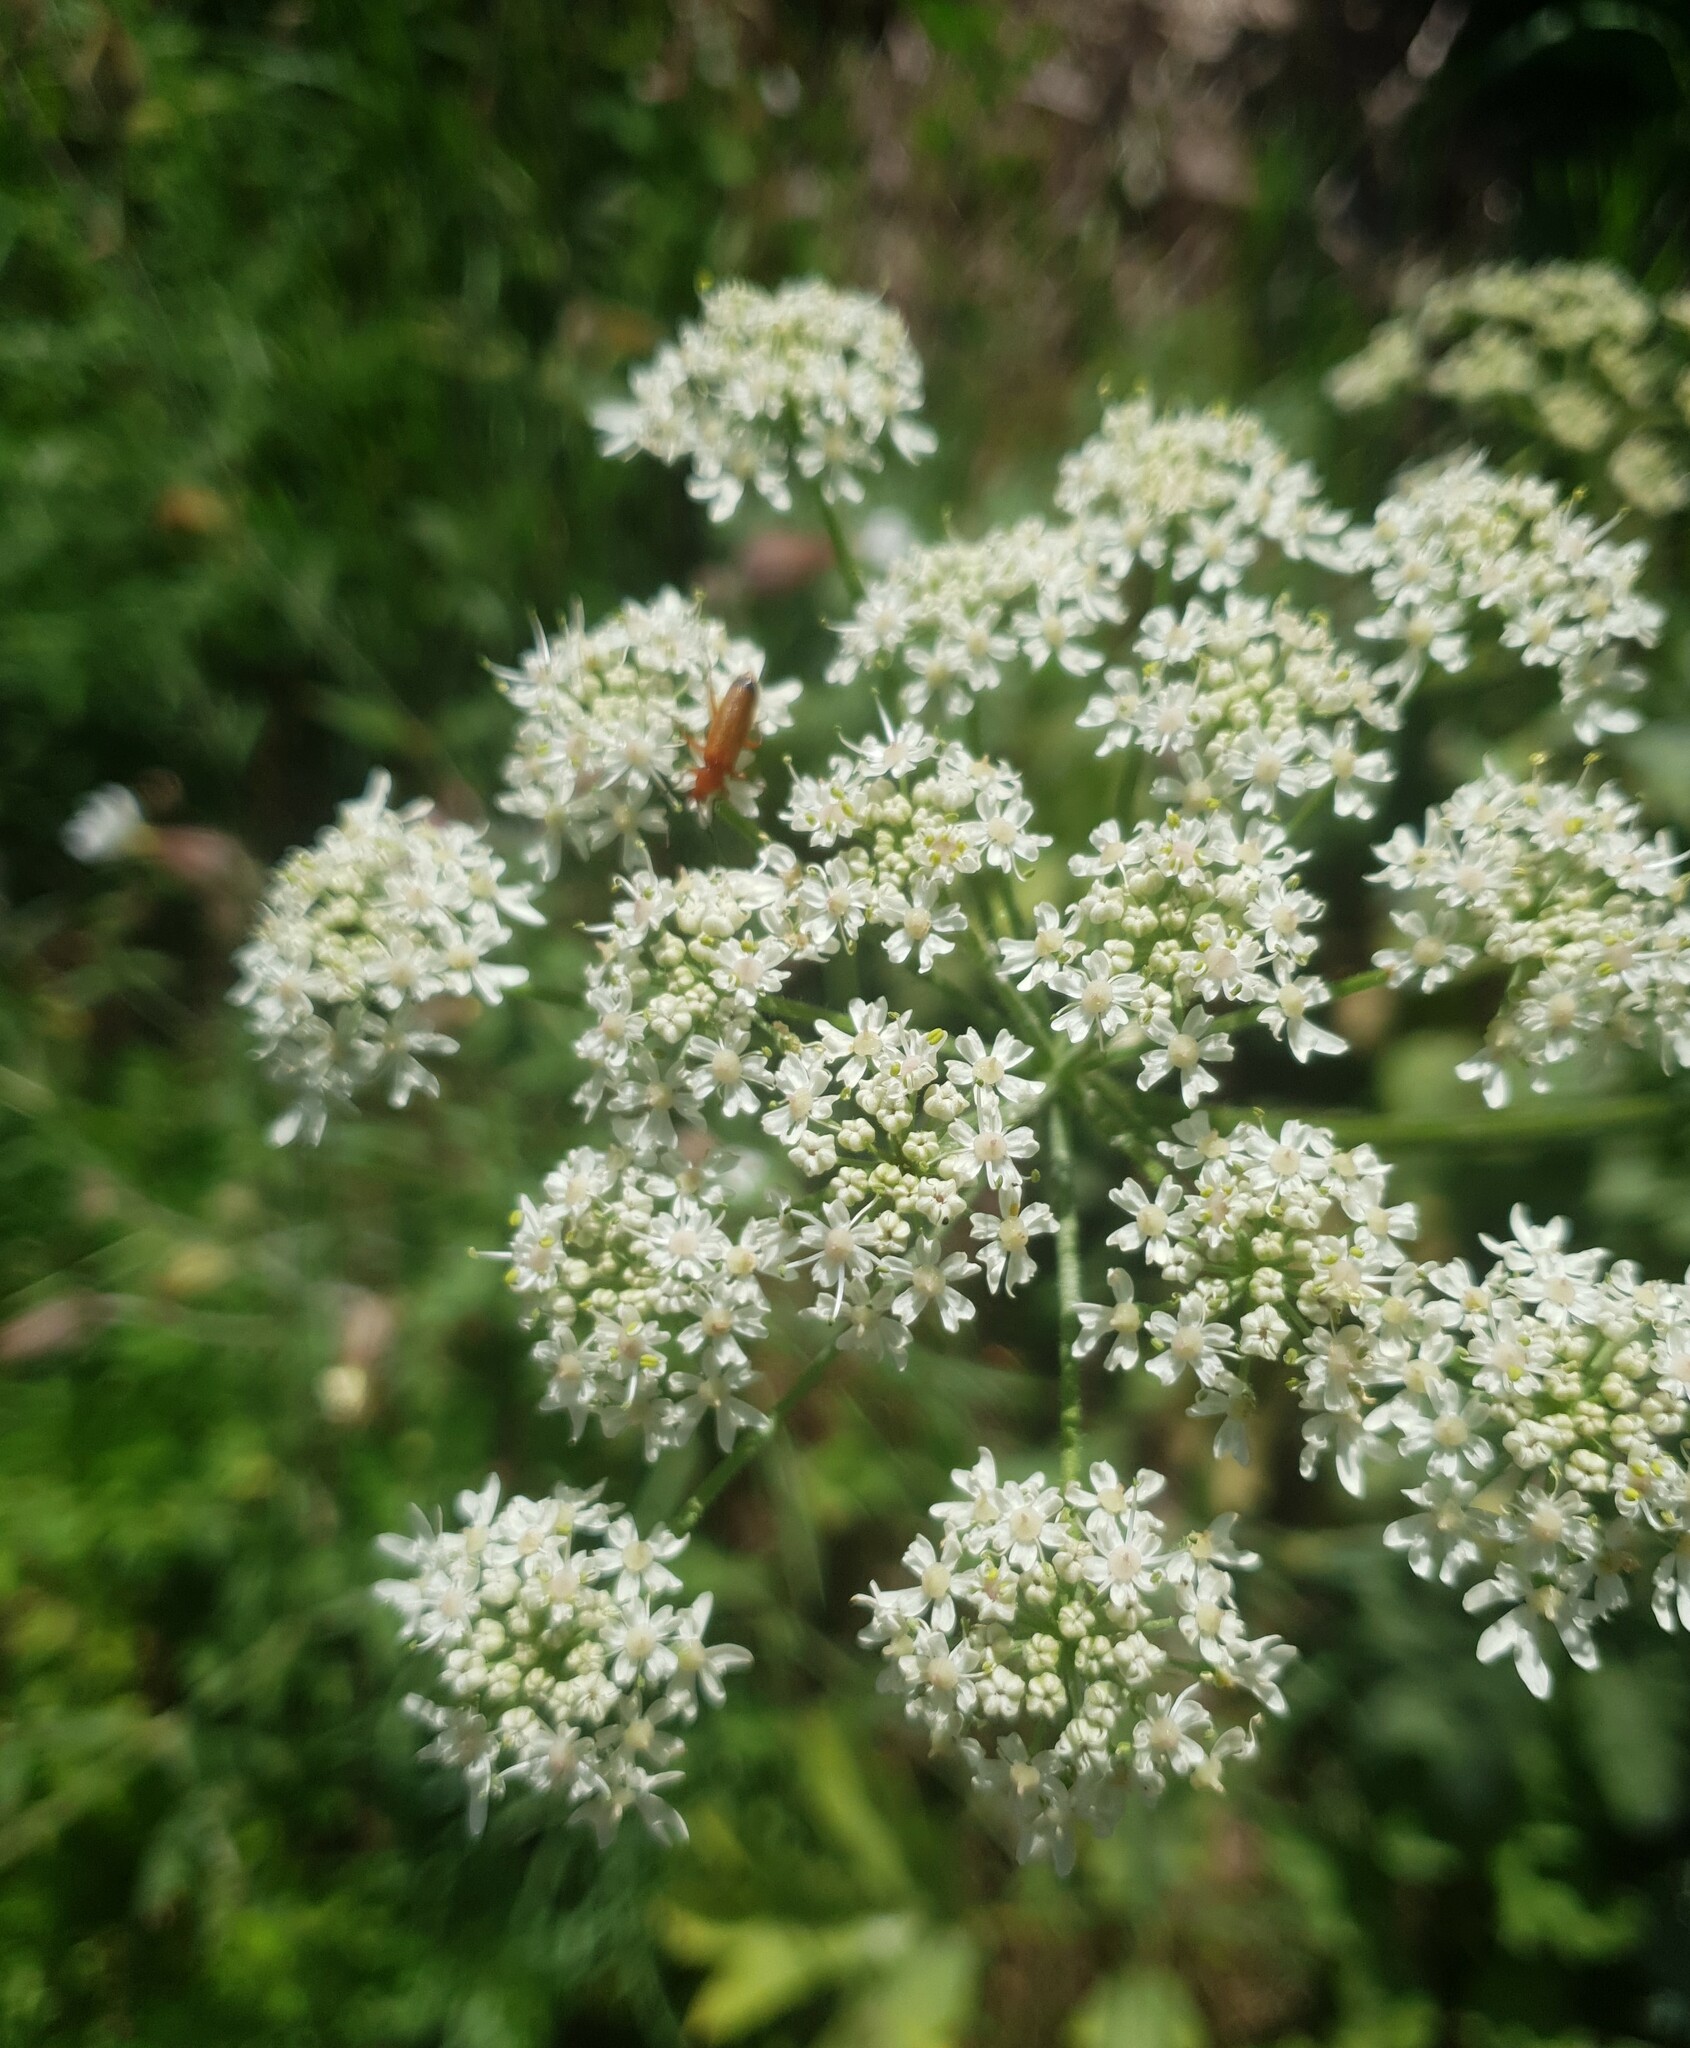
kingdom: Plantae
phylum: Tracheophyta
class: Magnoliopsida
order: Apiales
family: Apiaceae
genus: Heracleum
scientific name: Heracleum sphondylium
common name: Hogweed
